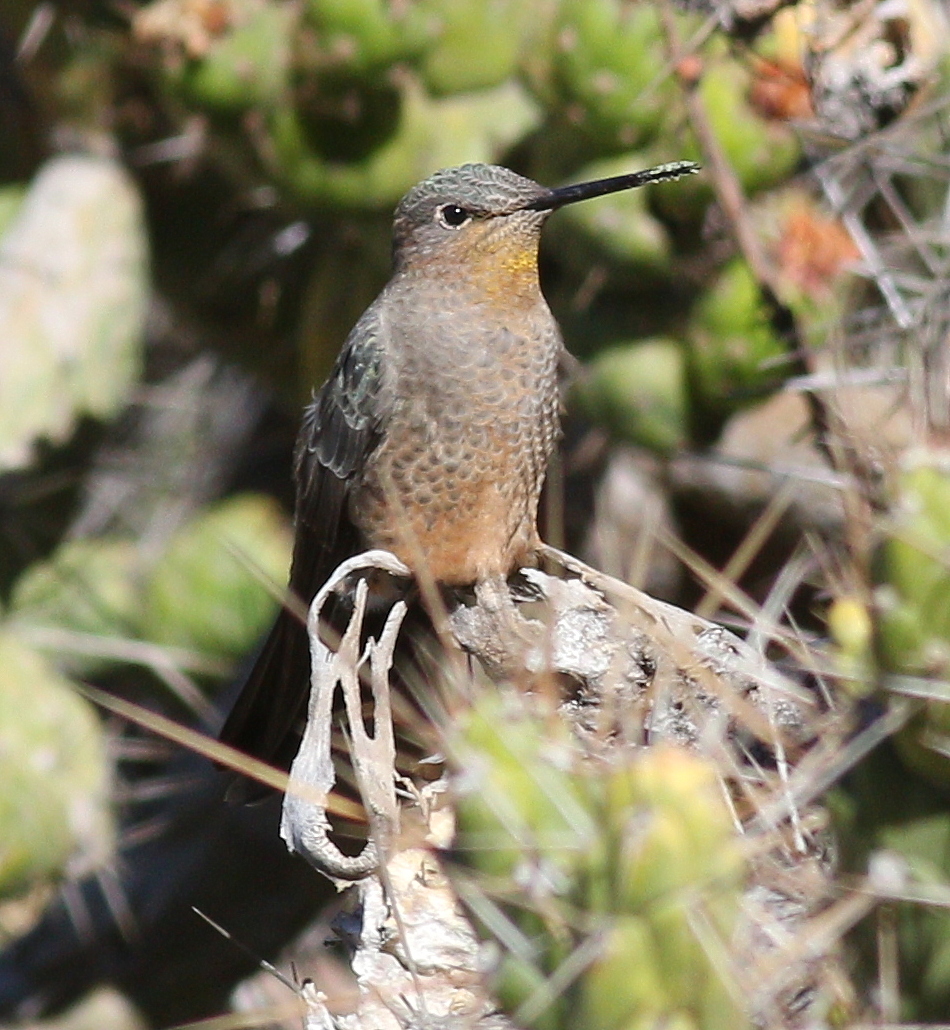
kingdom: Animalia
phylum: Chordata
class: Aves
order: Apodiformes
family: Trochilidae
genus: Patagona
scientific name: Patagona gigas
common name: Giant hummingbird
